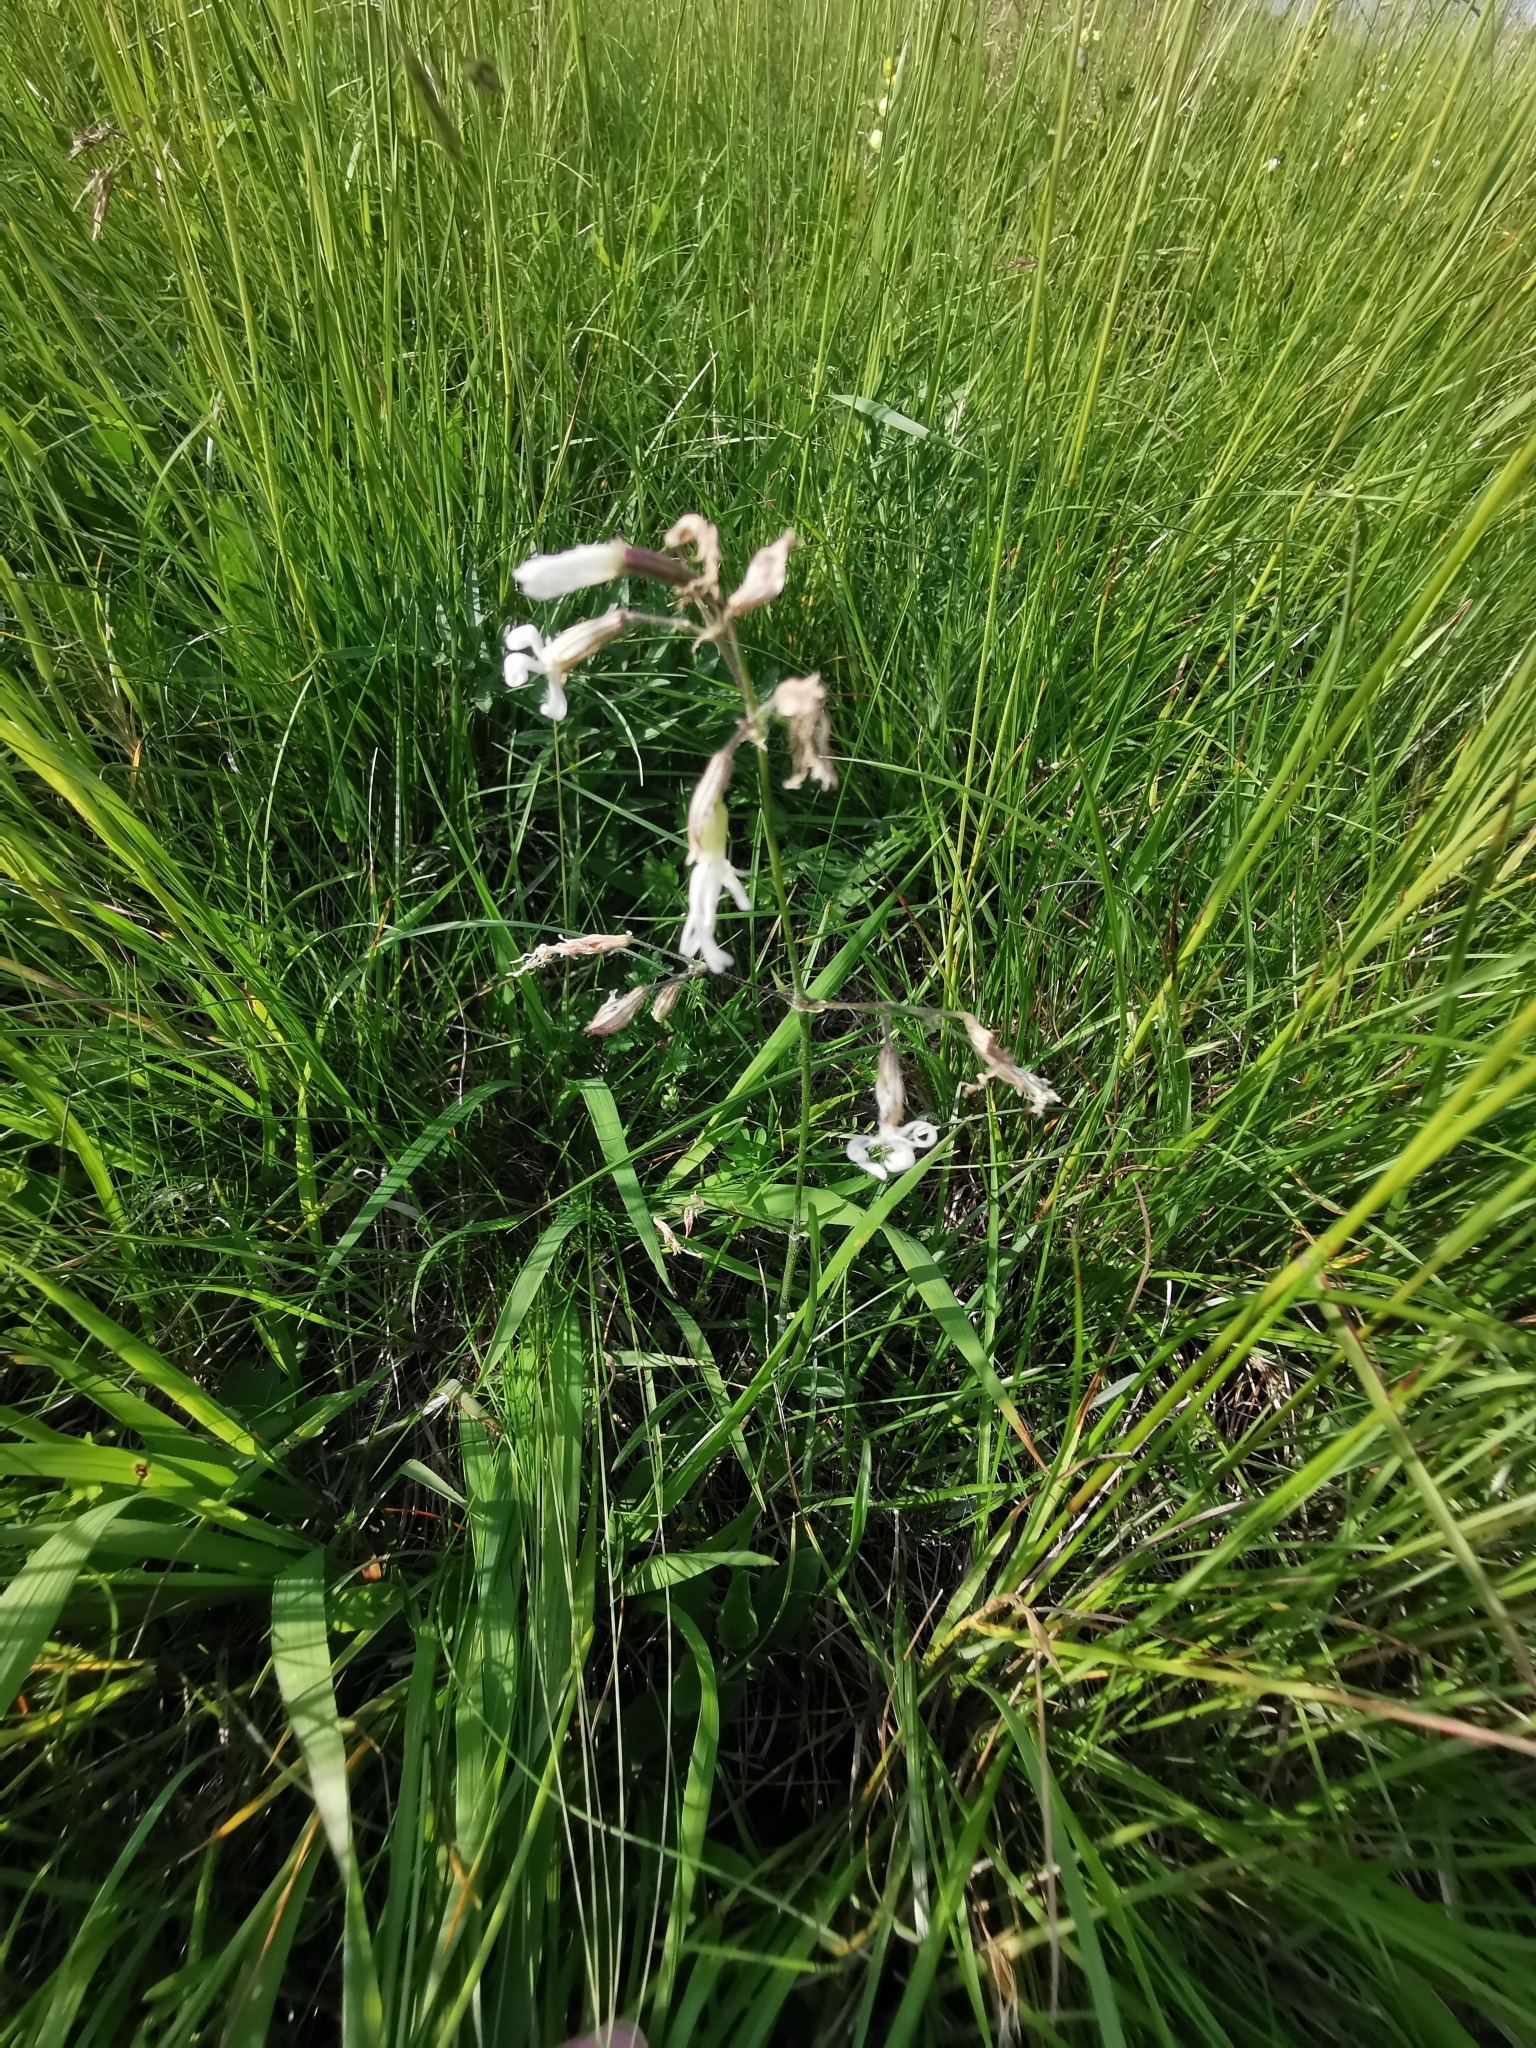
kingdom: Plantae
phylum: Tracheophyta
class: Magnoliopsida
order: Caryophyllales
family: Caryophyllaceae
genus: Silene
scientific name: Silene nutans
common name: Nottingham catchfly
